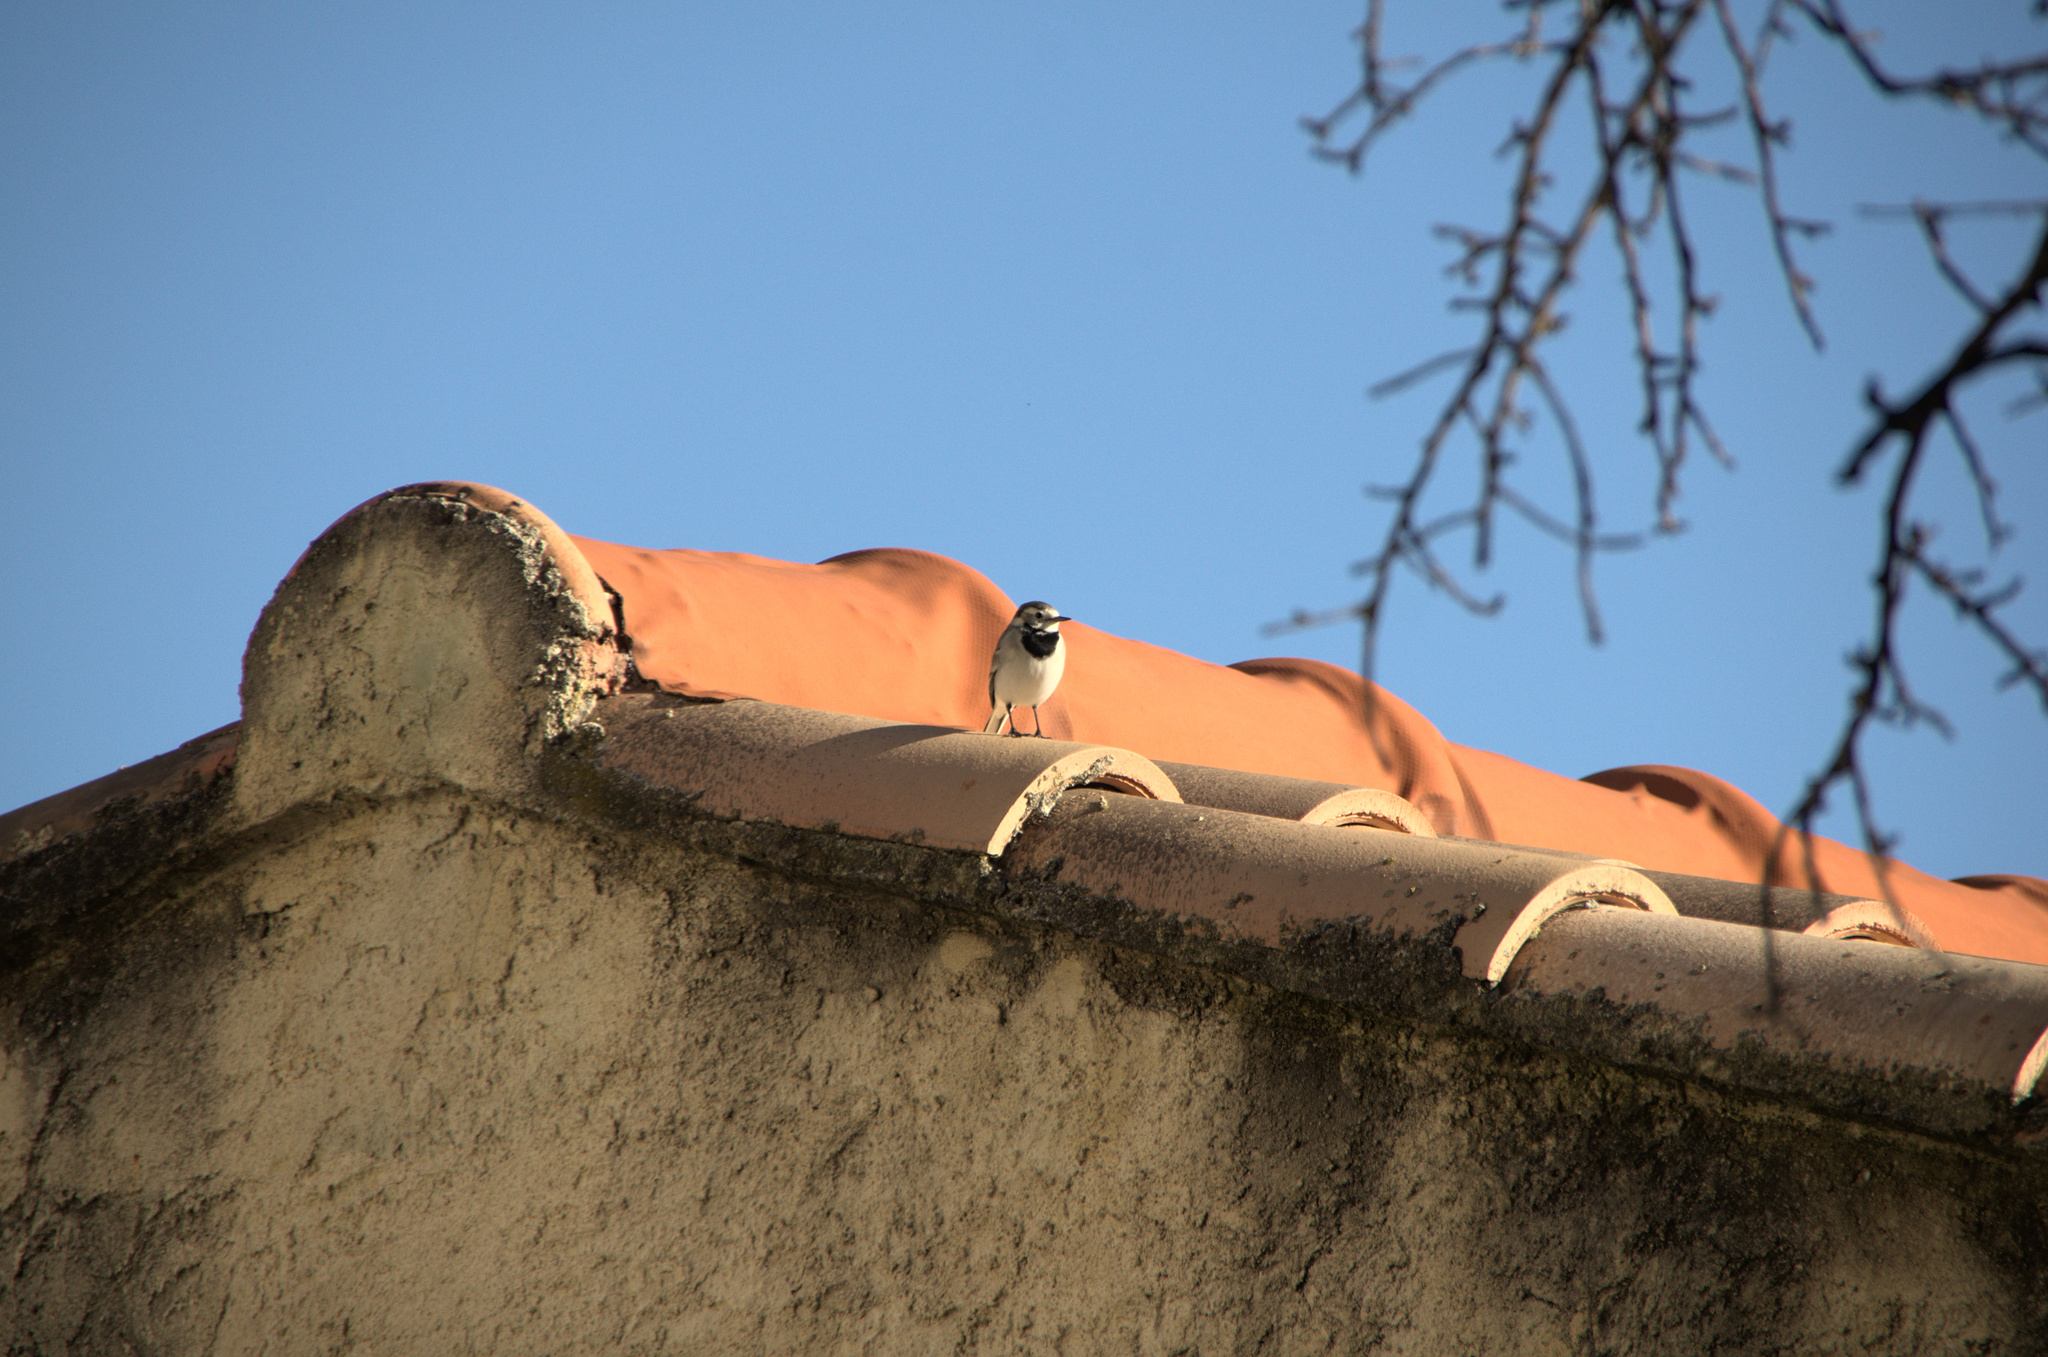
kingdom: Animalia
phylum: Chordata
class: Aves
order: Passeriformes
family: Motacillidae
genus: Motacilla
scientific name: Motacilla alba
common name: White wagtail
